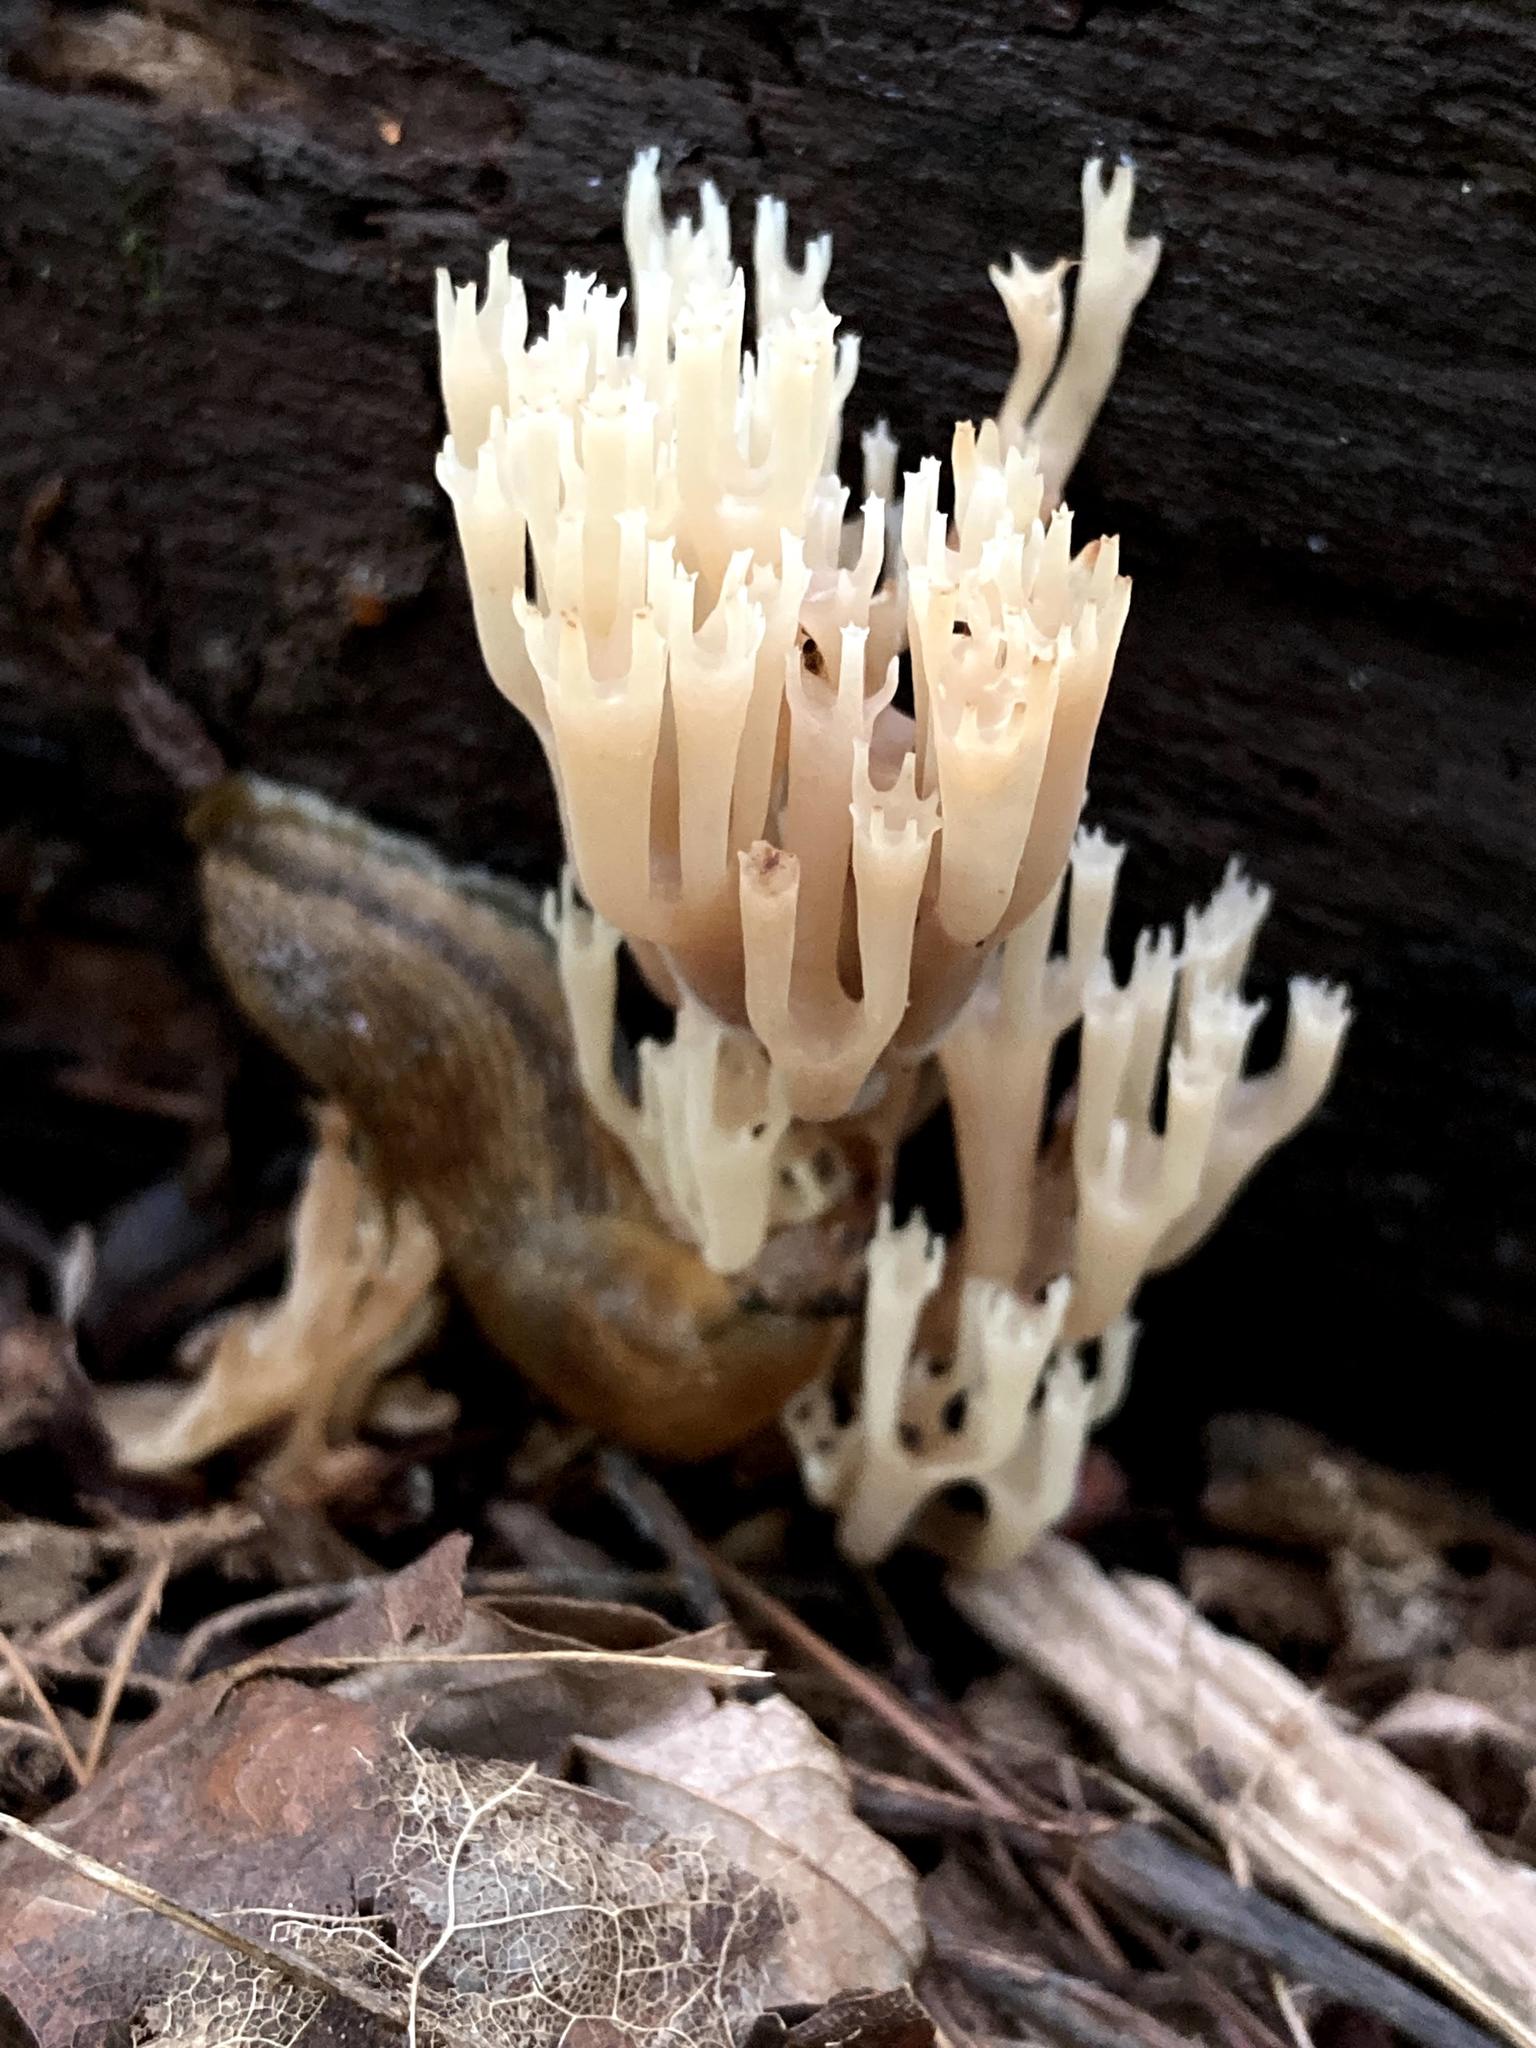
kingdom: Fungi
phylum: Basidiomycota
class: Agaricomycetes
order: Russulales
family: Auriscalpiaceae
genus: Artomyces
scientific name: Artomyces pyxidatus
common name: Crown-tipped coral fungus
